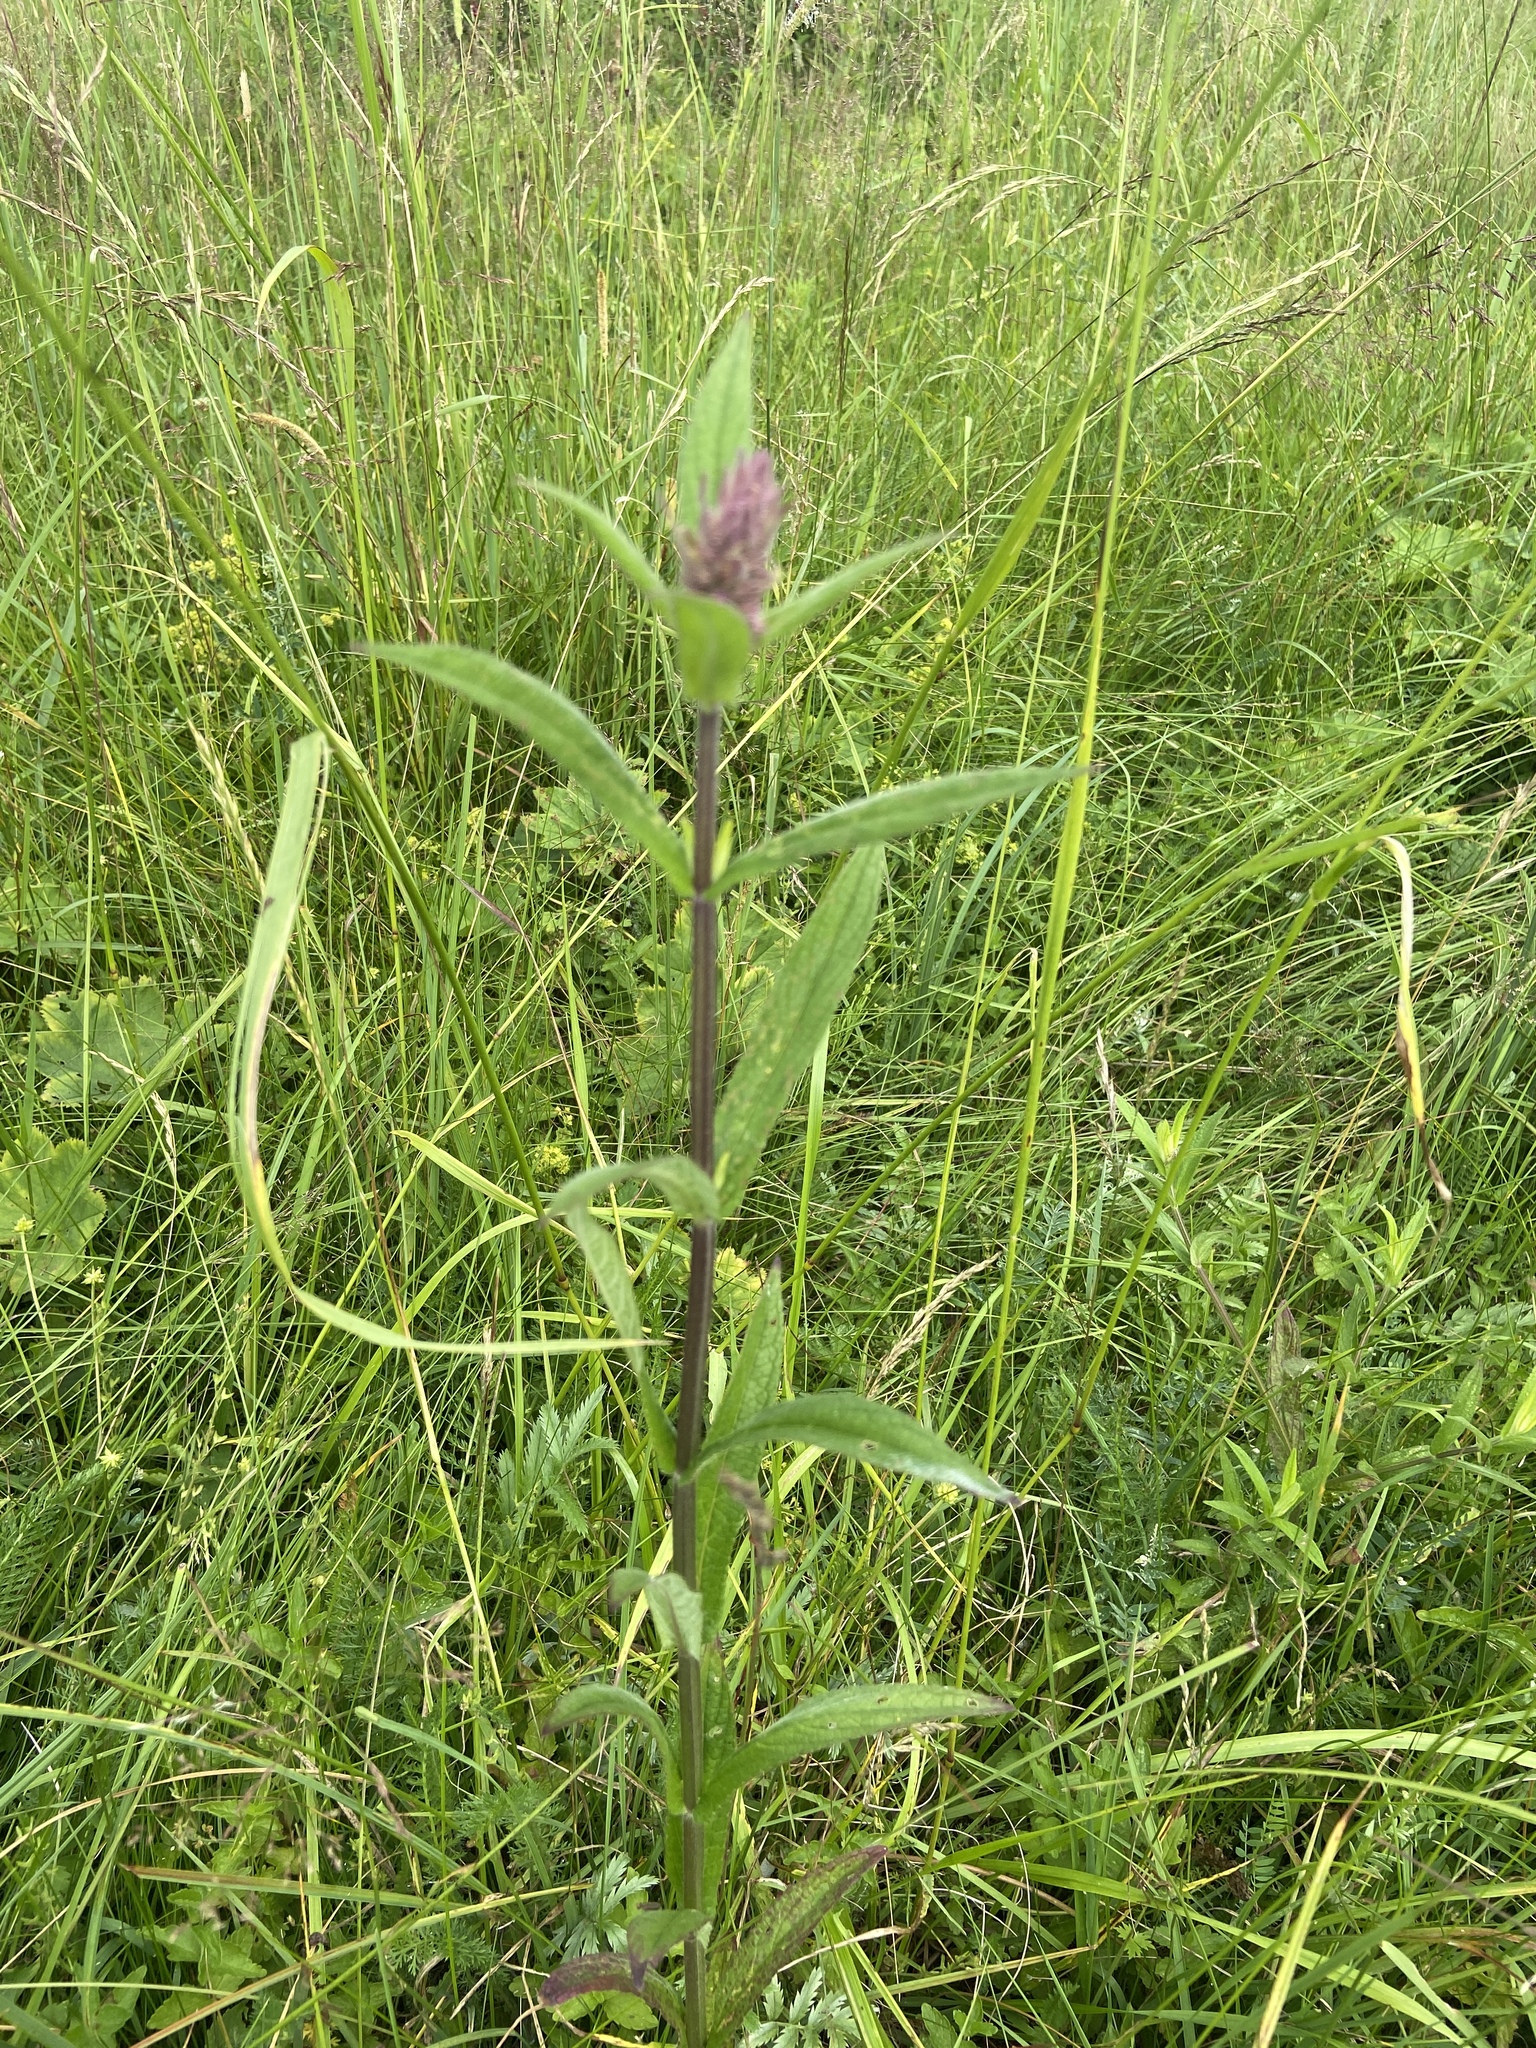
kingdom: Plantae
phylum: Tracheophyta
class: Magnoliopsida
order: Lamiales
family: Lamiaceae
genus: Stachys
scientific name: Stachys palustris
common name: Marsh woundwort
